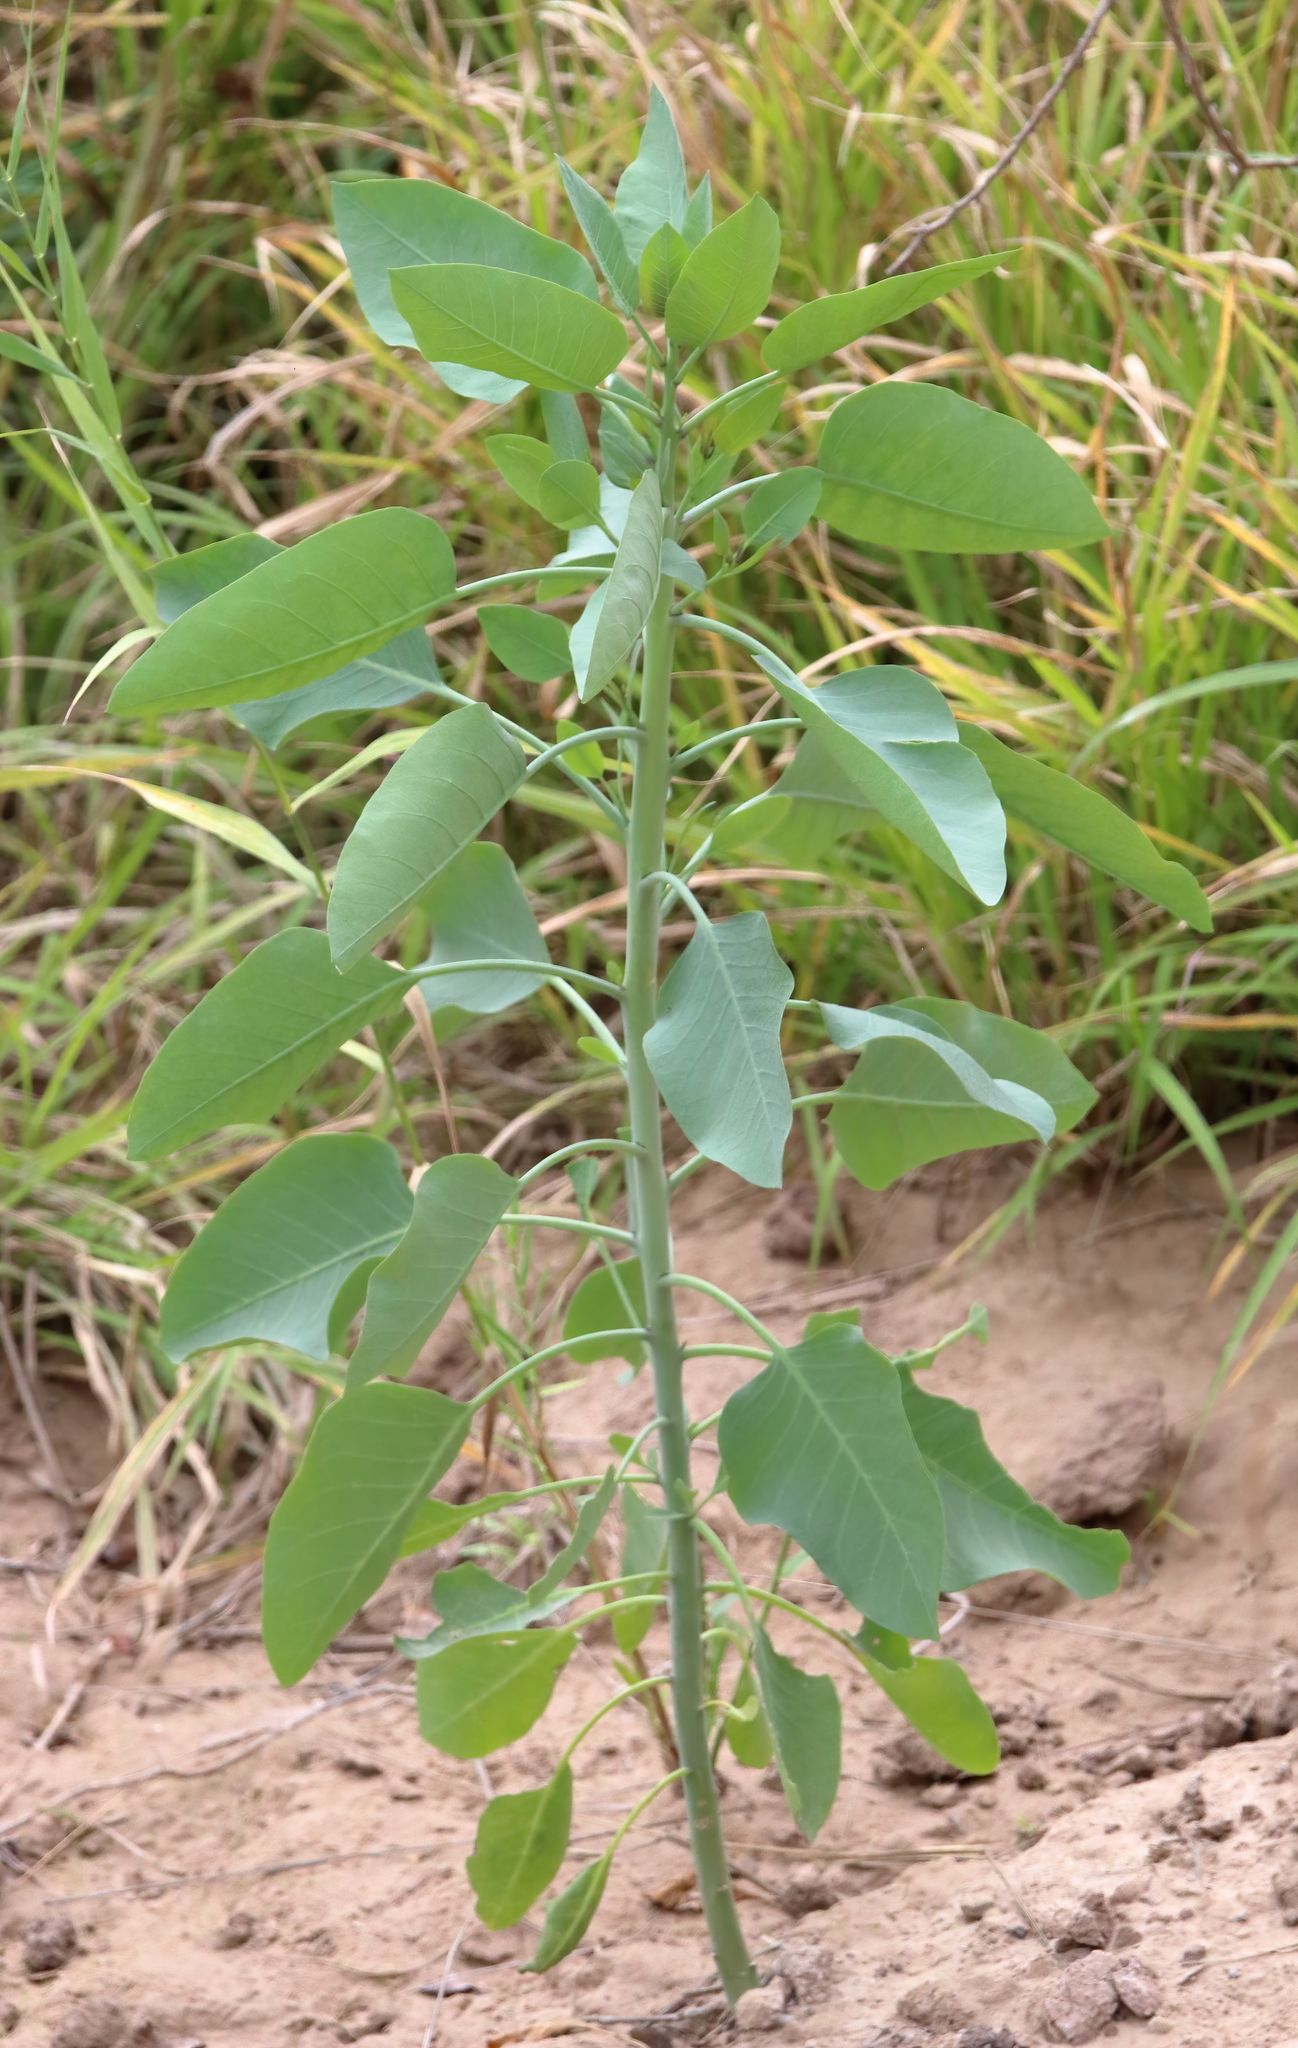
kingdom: Plantae
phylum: Tracheophyta
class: Magnoliopsida
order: Solanales
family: Solanaceae
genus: Nicotiana
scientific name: Nicotiana glauca
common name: Tree tobacco
